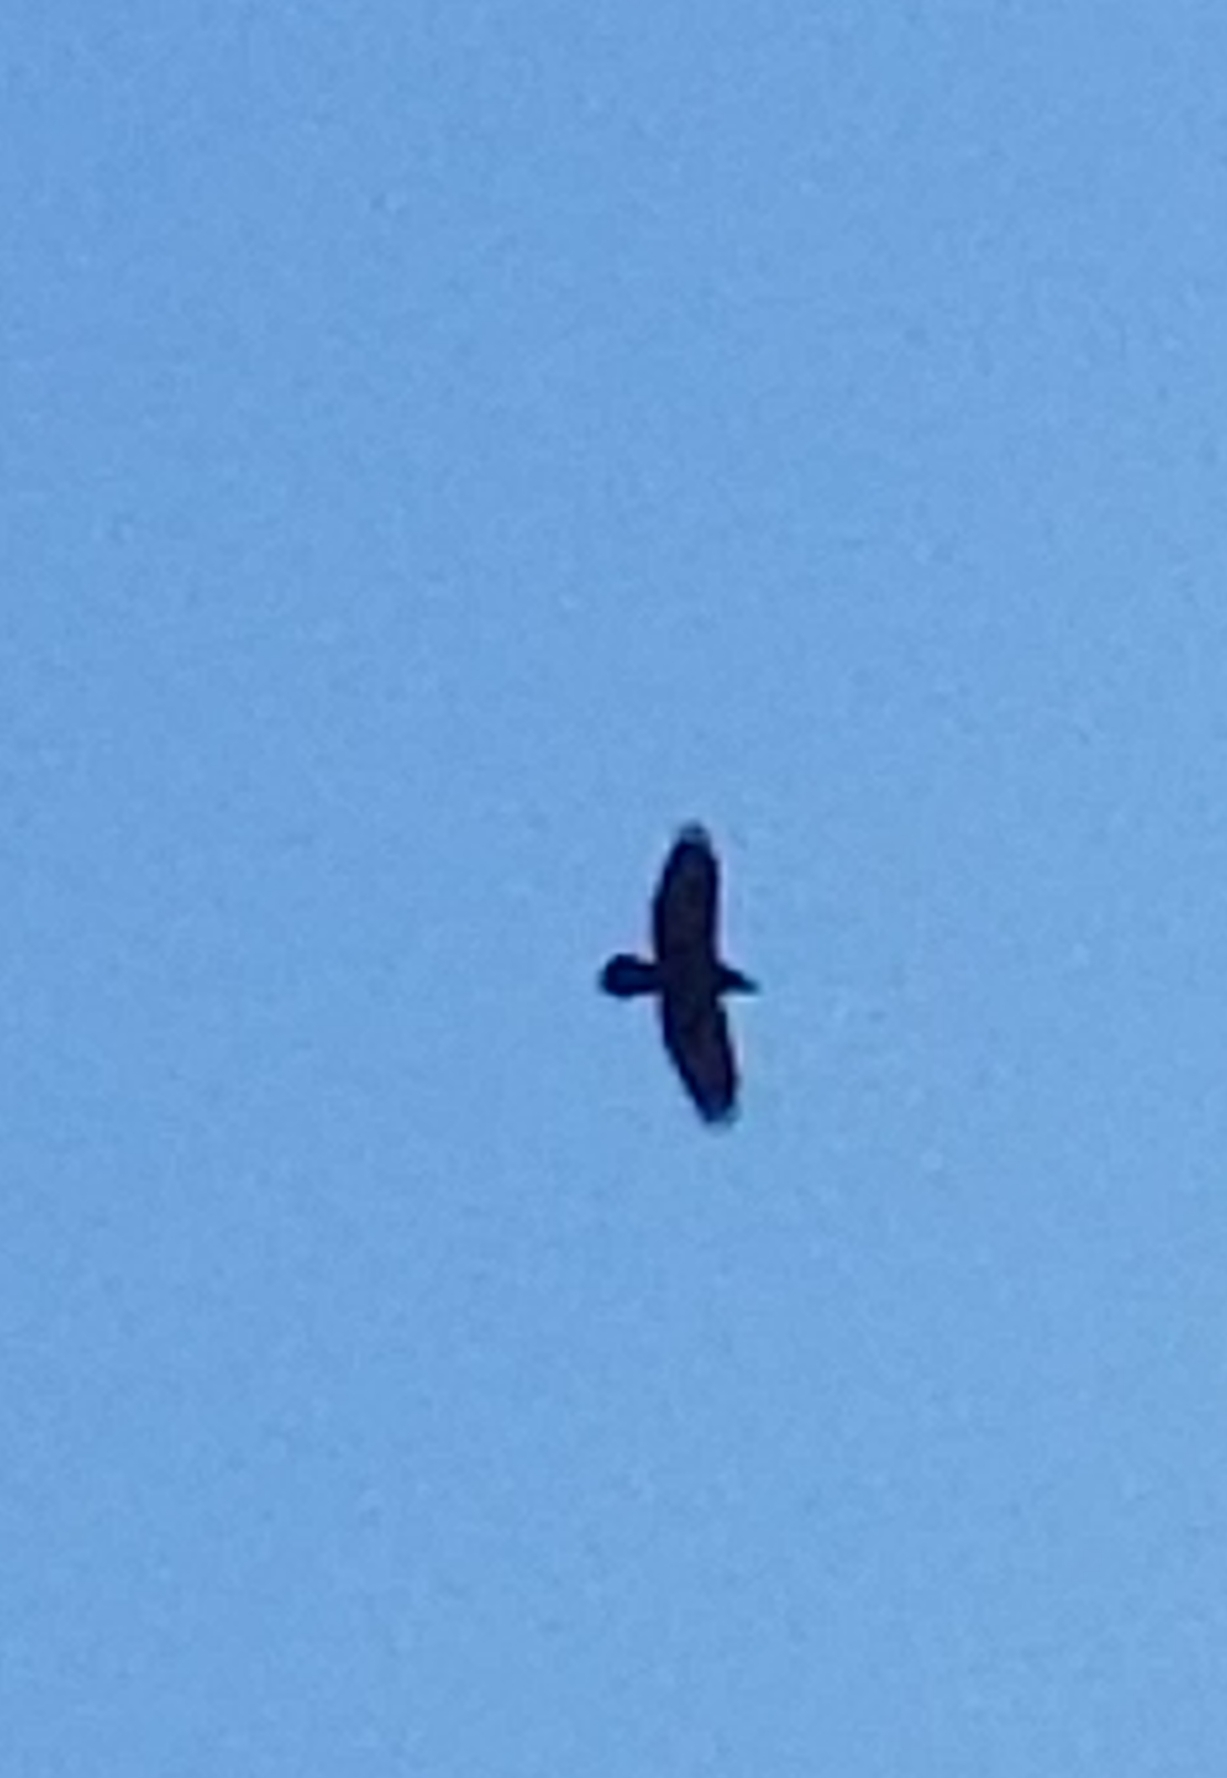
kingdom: Animalia
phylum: Chordata
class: Aves
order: Passeriformes
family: Corvidae
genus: Corvus
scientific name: Corvus corax
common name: Common raven
